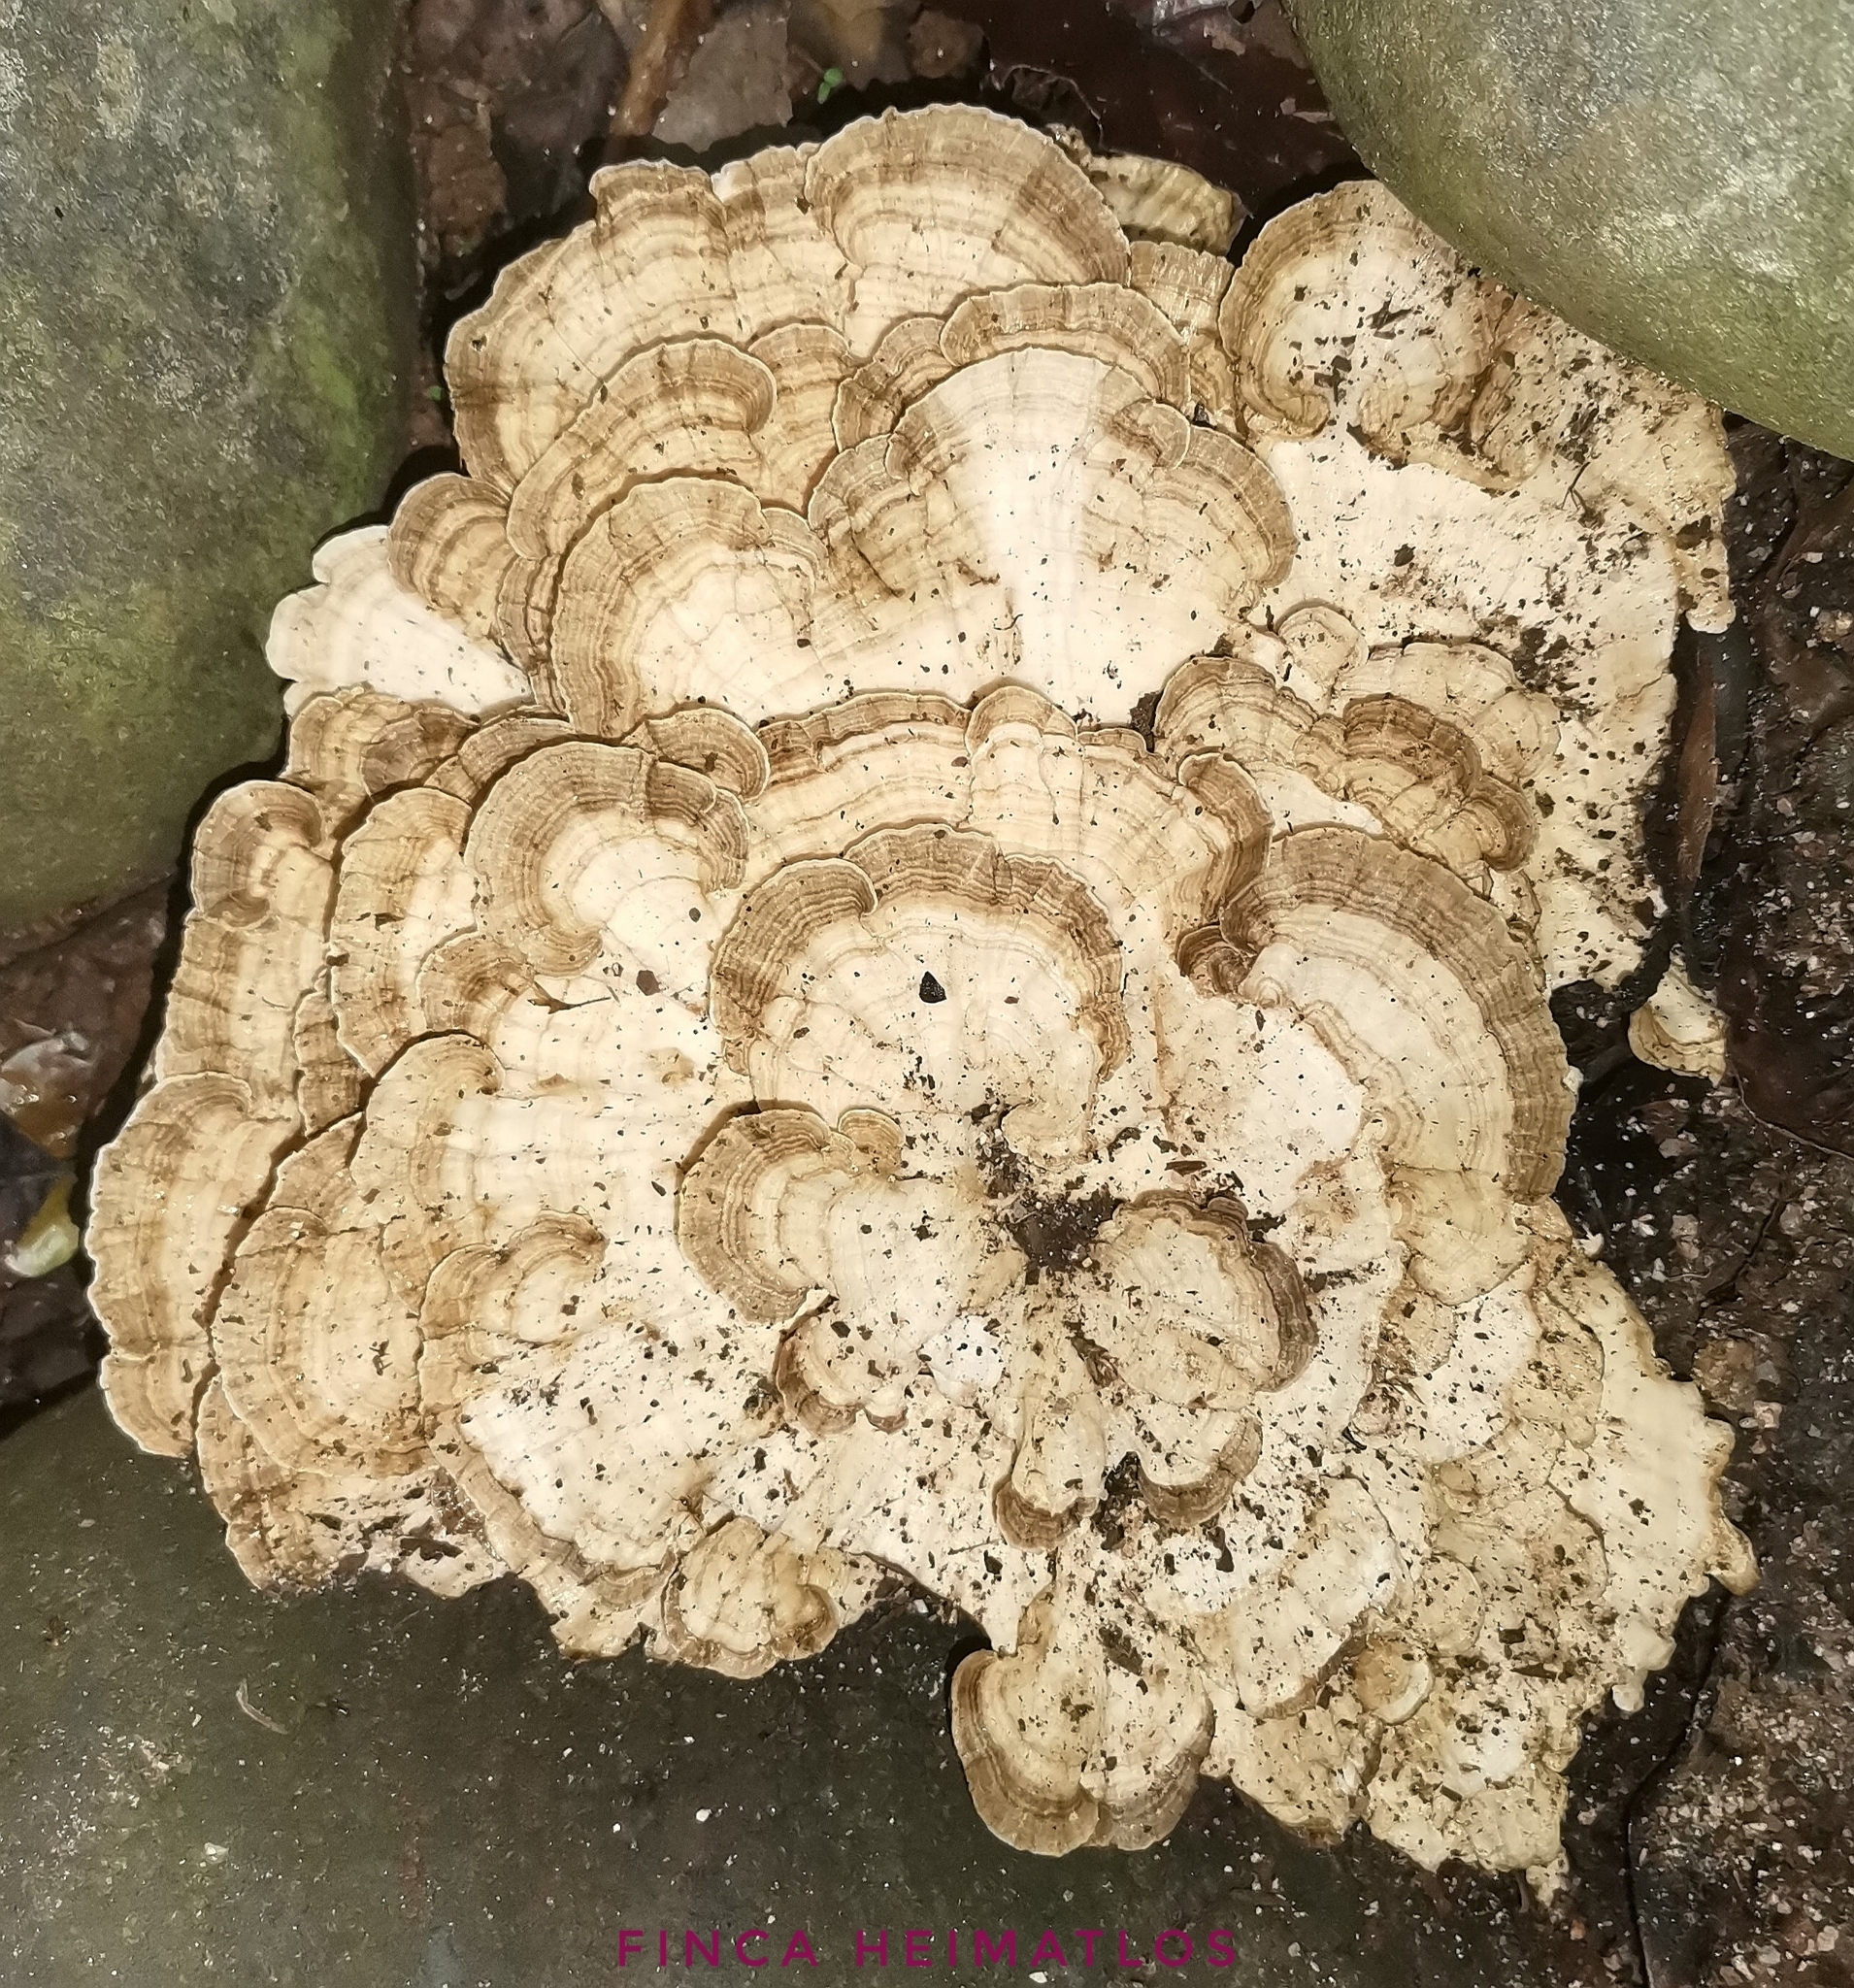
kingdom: Fungi
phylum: Basidiomycota
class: Agaricomycetes
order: Polyporales
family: Polyporaceae
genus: Cubamyces
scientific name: Cubamyces menziesii
